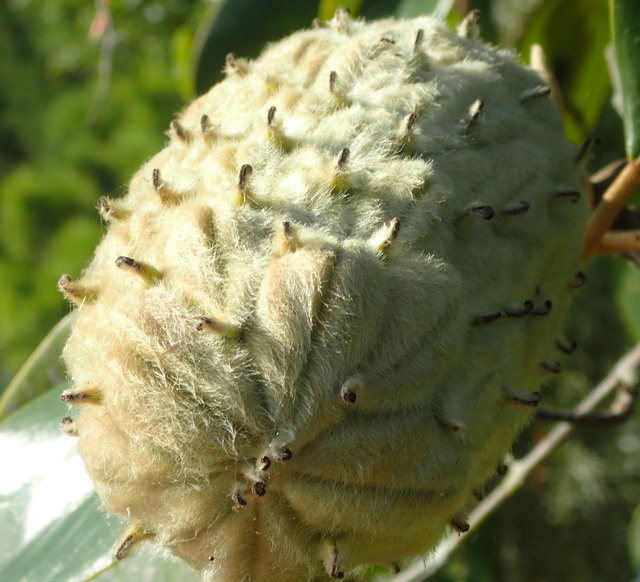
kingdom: Plantae
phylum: Tracheophyta
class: Magnoliopsida
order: Magnoliales
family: Magnoliaceae
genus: Magnolia
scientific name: Magnolia grandiflora
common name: Southern magnolia
